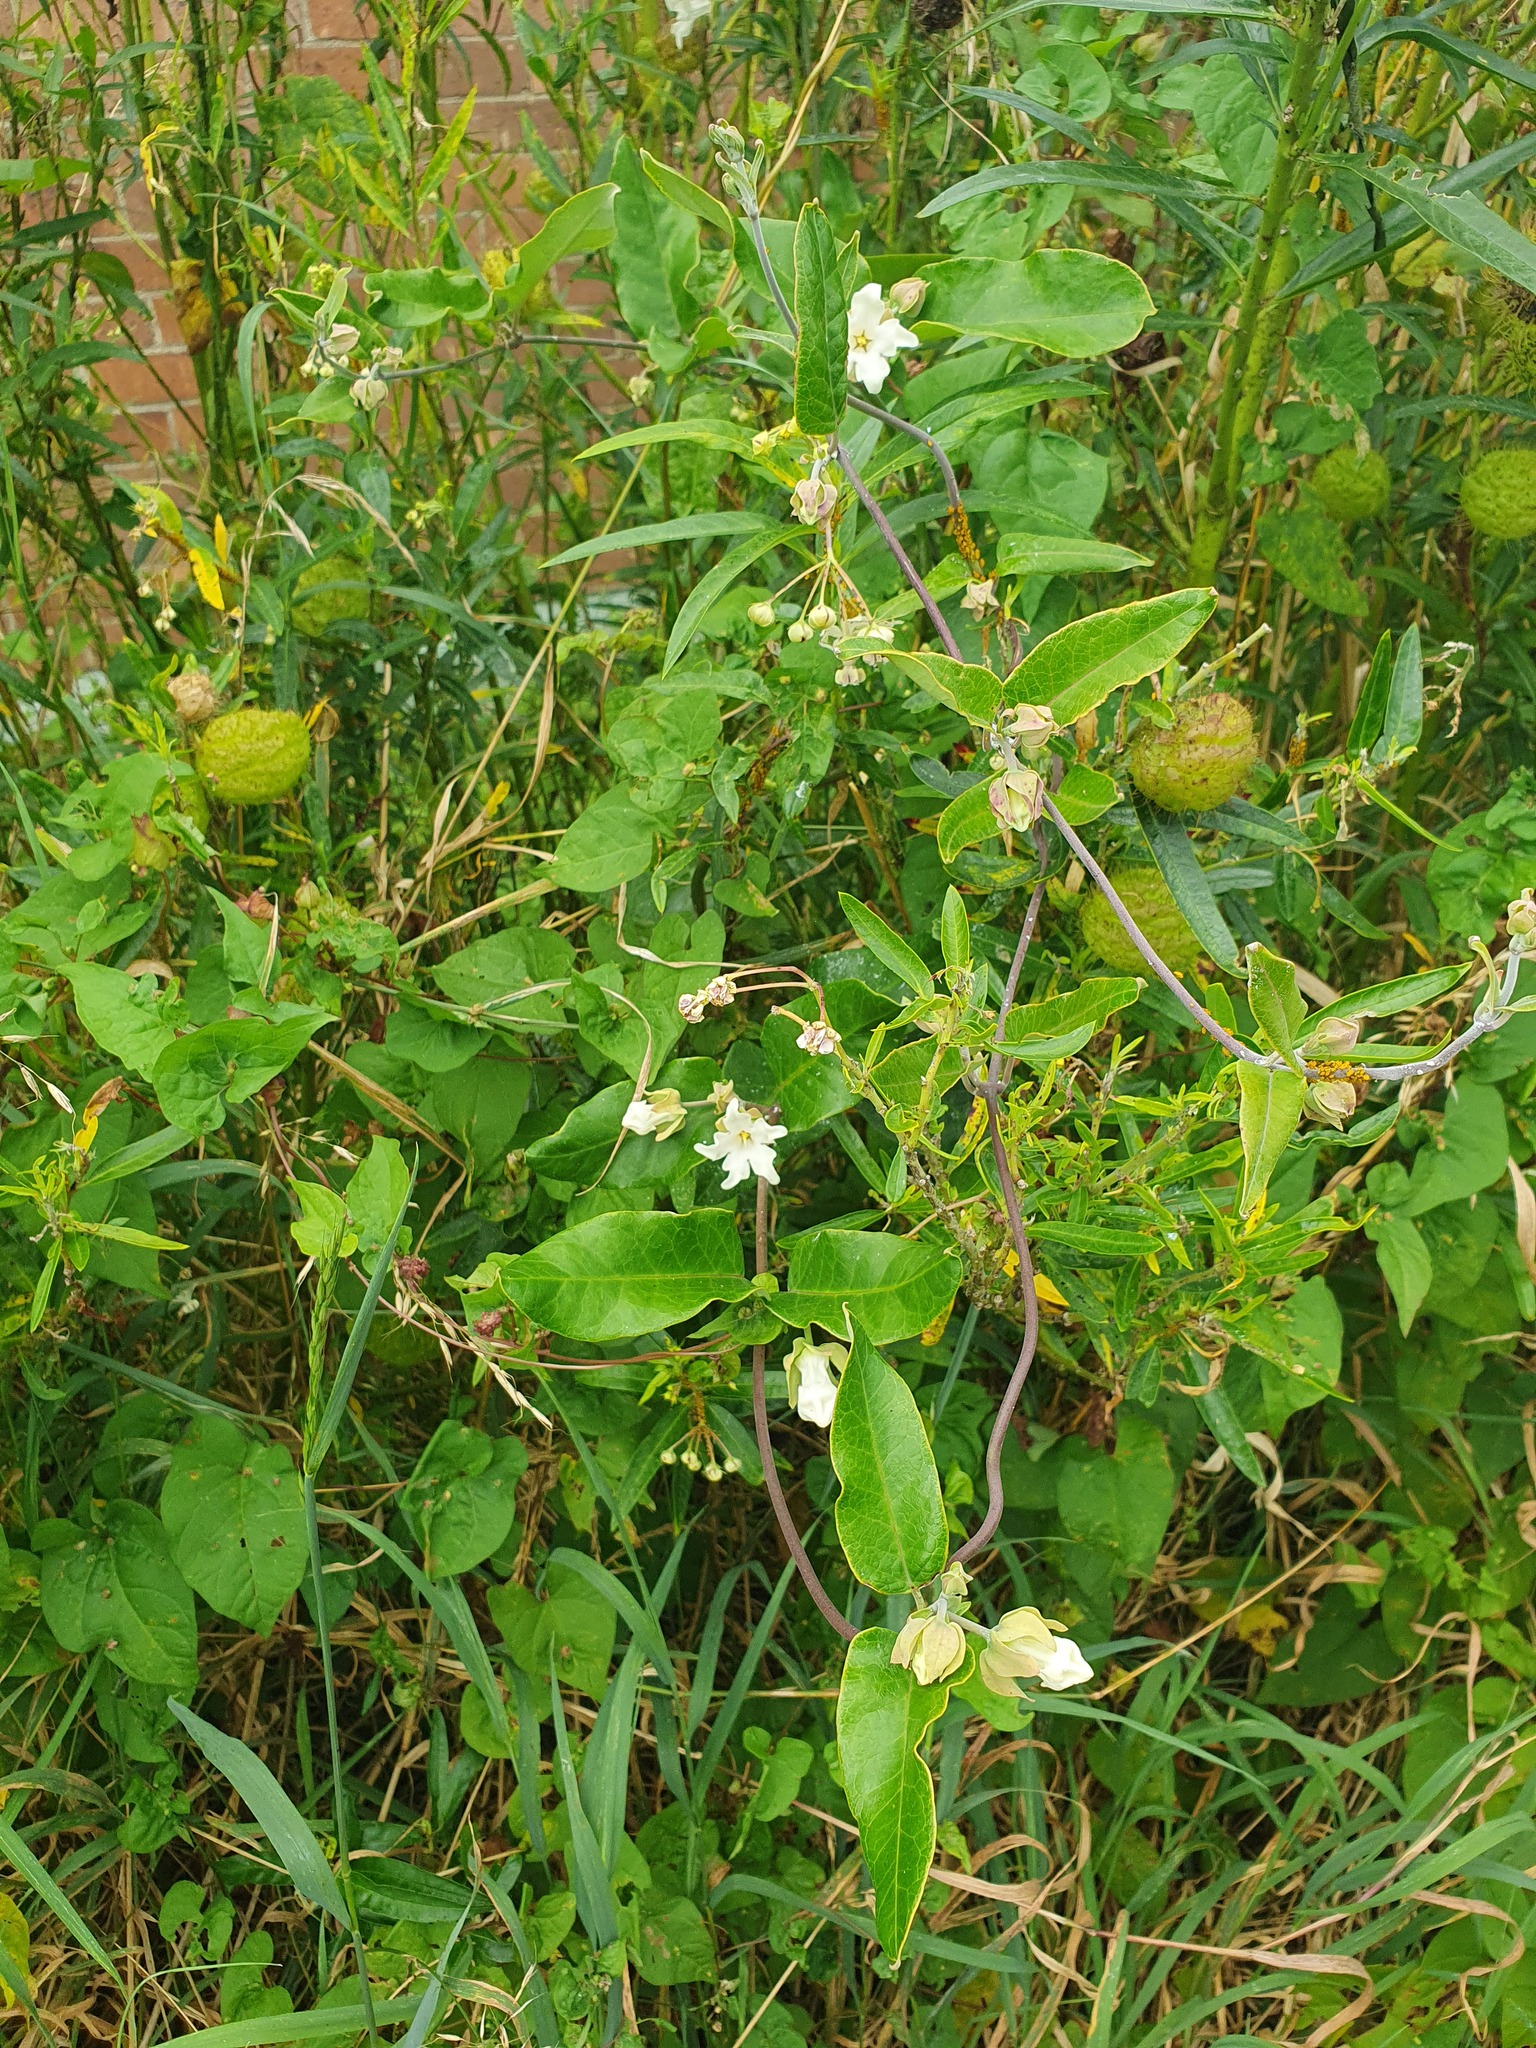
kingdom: Plantae
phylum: Tracheophyta
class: Magnoliopsida
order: Gentianales
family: Apocynaceae
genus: Araujia
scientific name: Araujia sericifera
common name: White bladderflower
